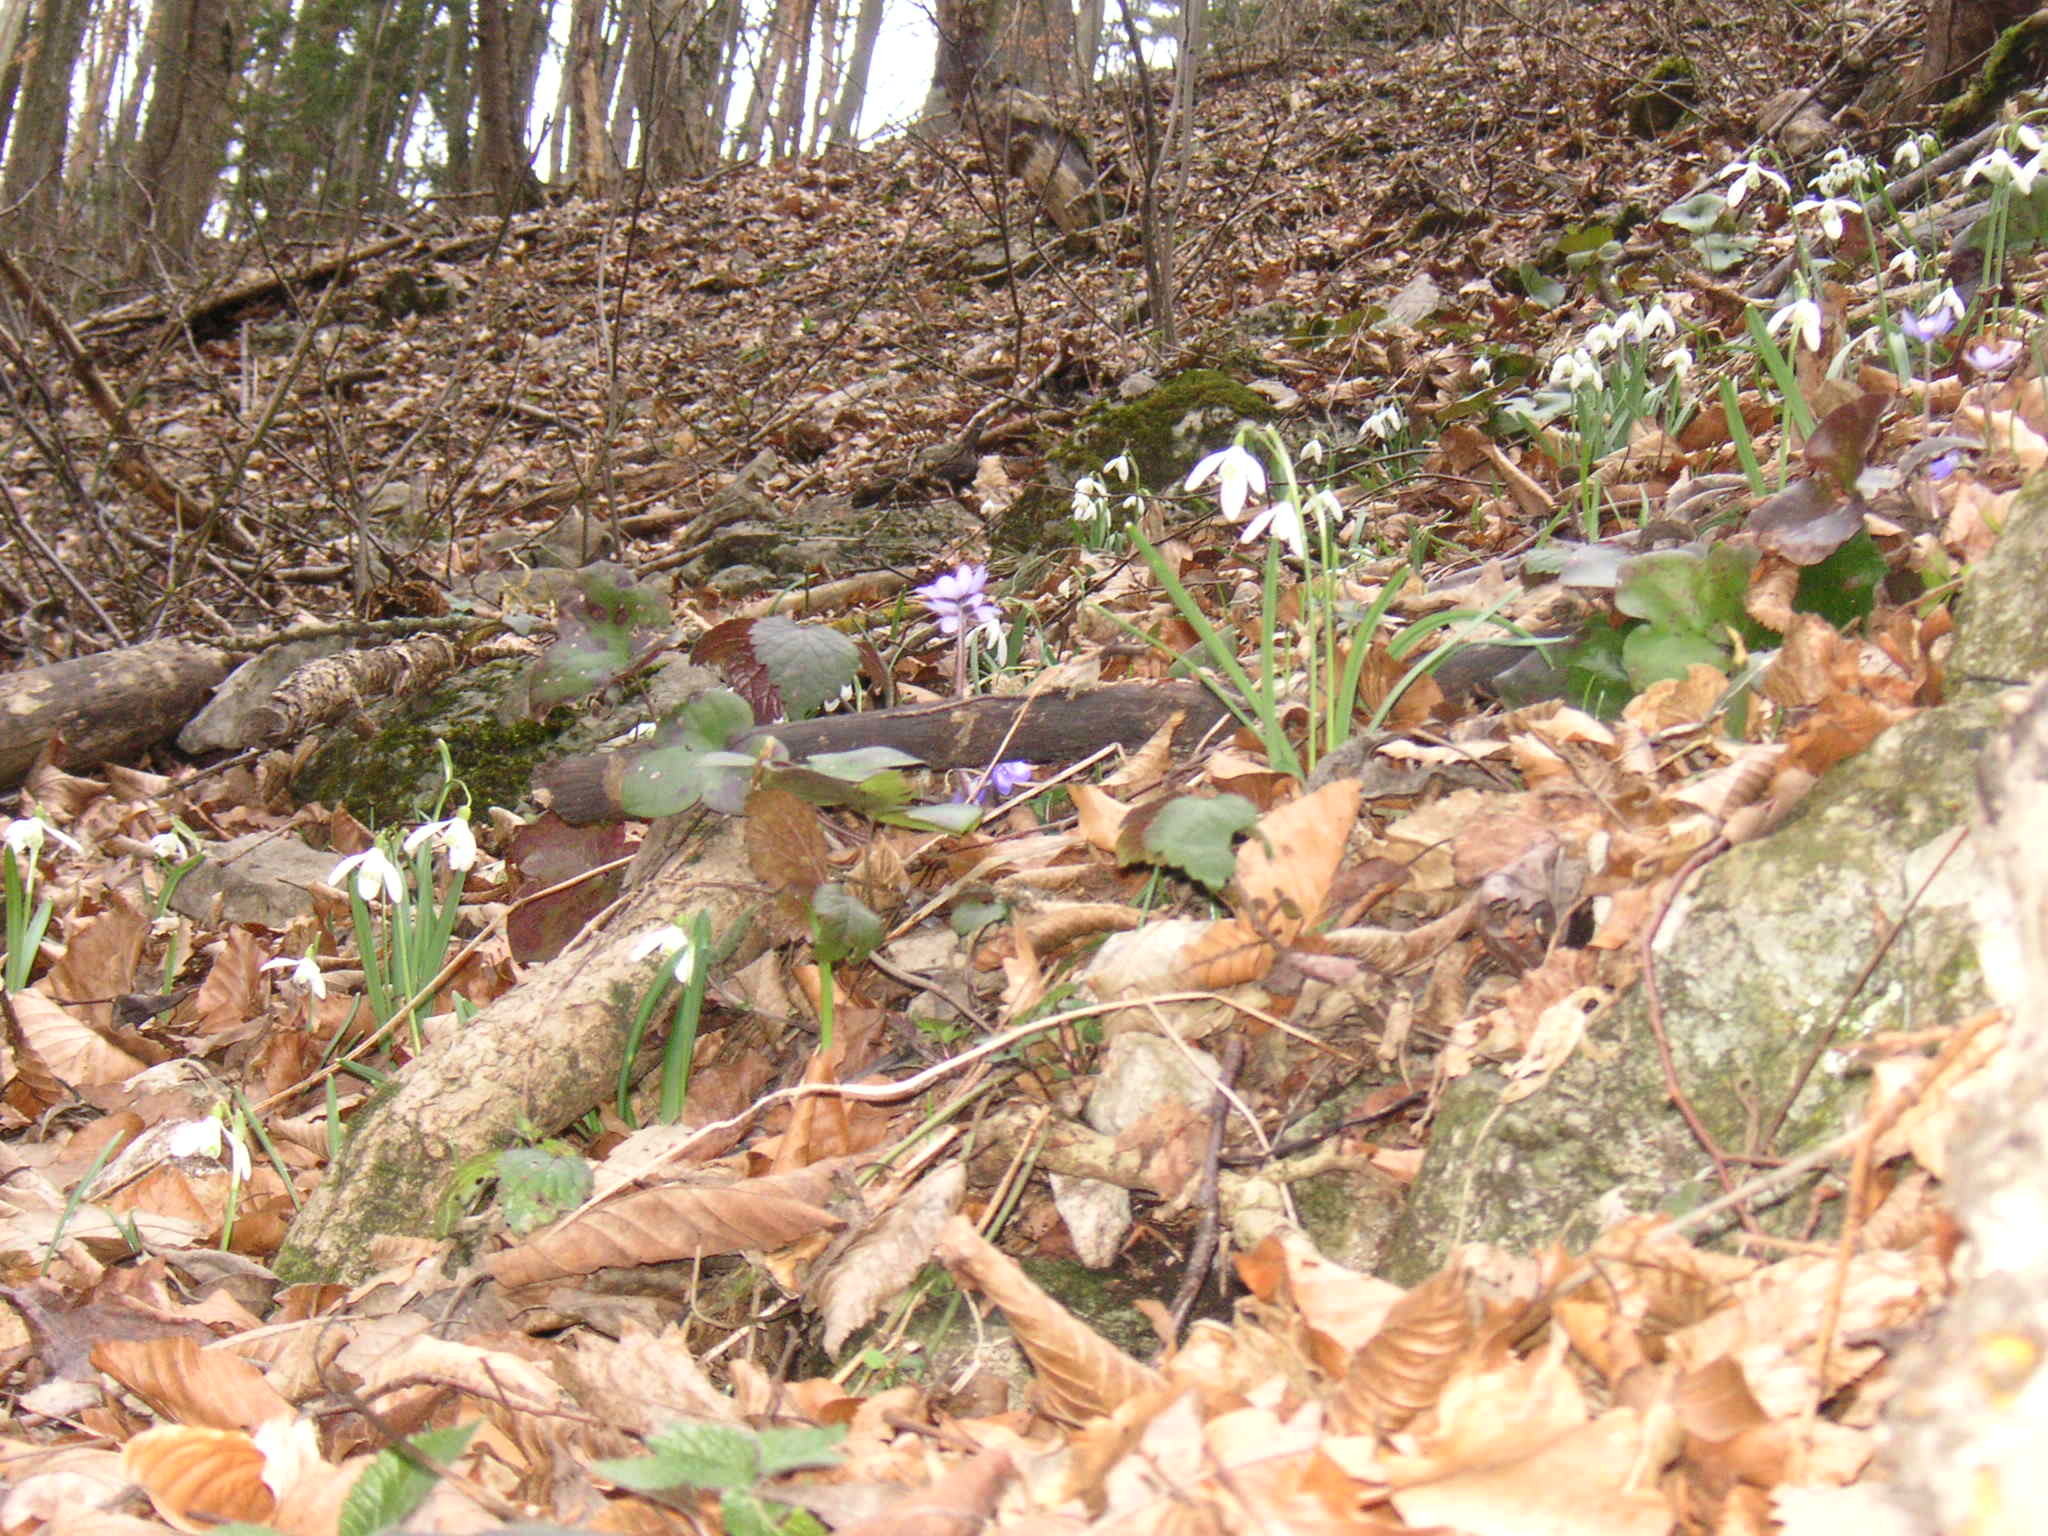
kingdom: Plantae
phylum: Tracheophyta
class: Liliopsida
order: Asparagales
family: Amaryllidaceae
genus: Galanthus
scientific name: Galanthus nivalis
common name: Snowdrop
